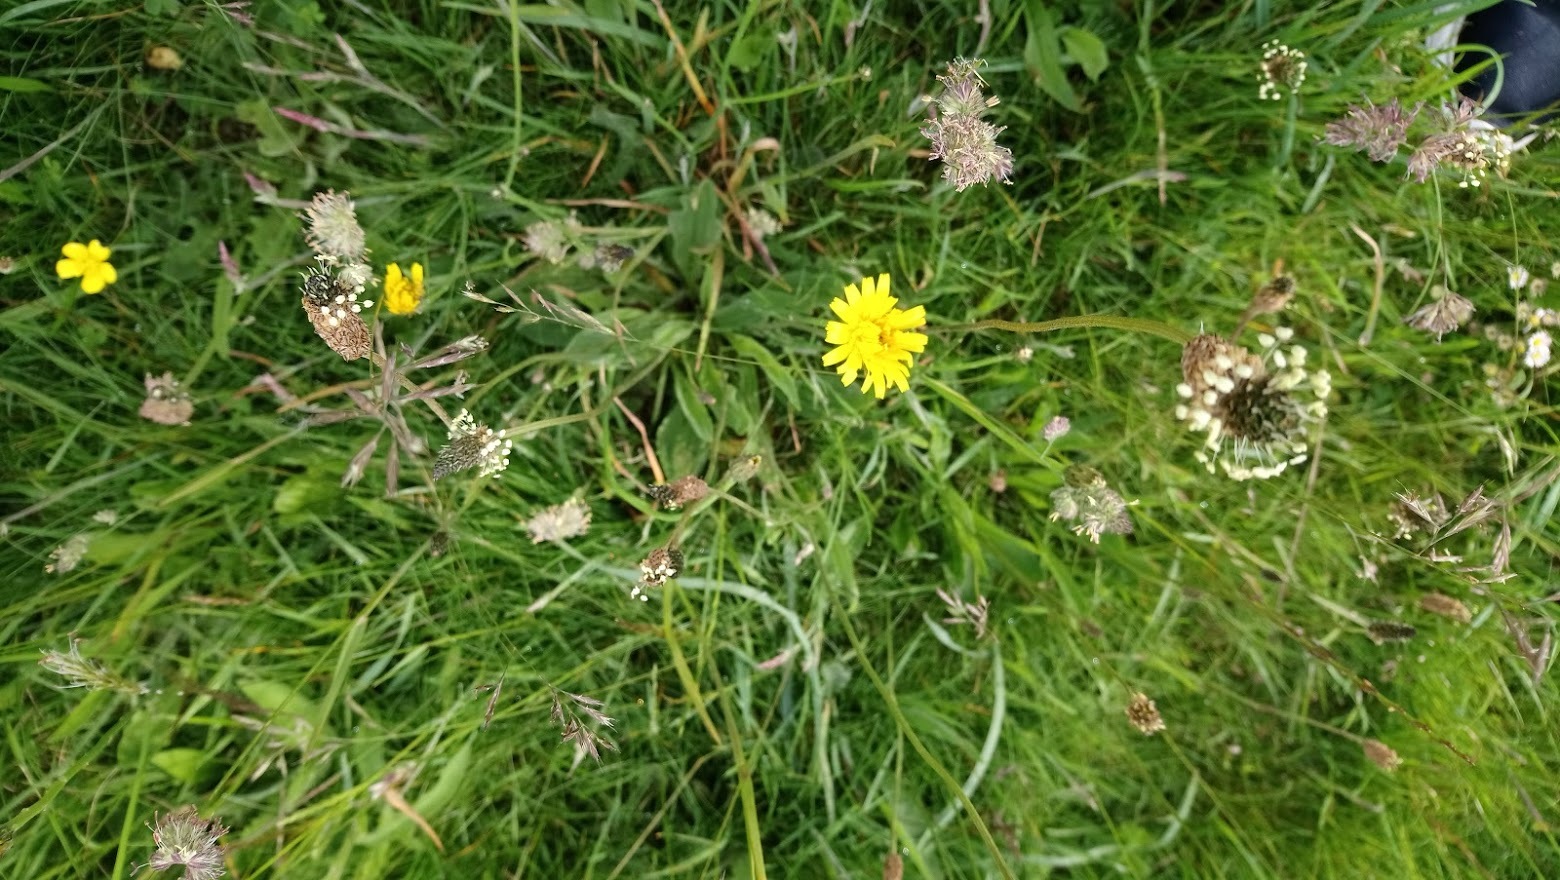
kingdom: Plantae
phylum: Tracheophyta
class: Magnoliopsida
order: Lamiales
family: Plantaginaceae
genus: Plantago
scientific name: Plantago lanceolata
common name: Ribwort plantain
